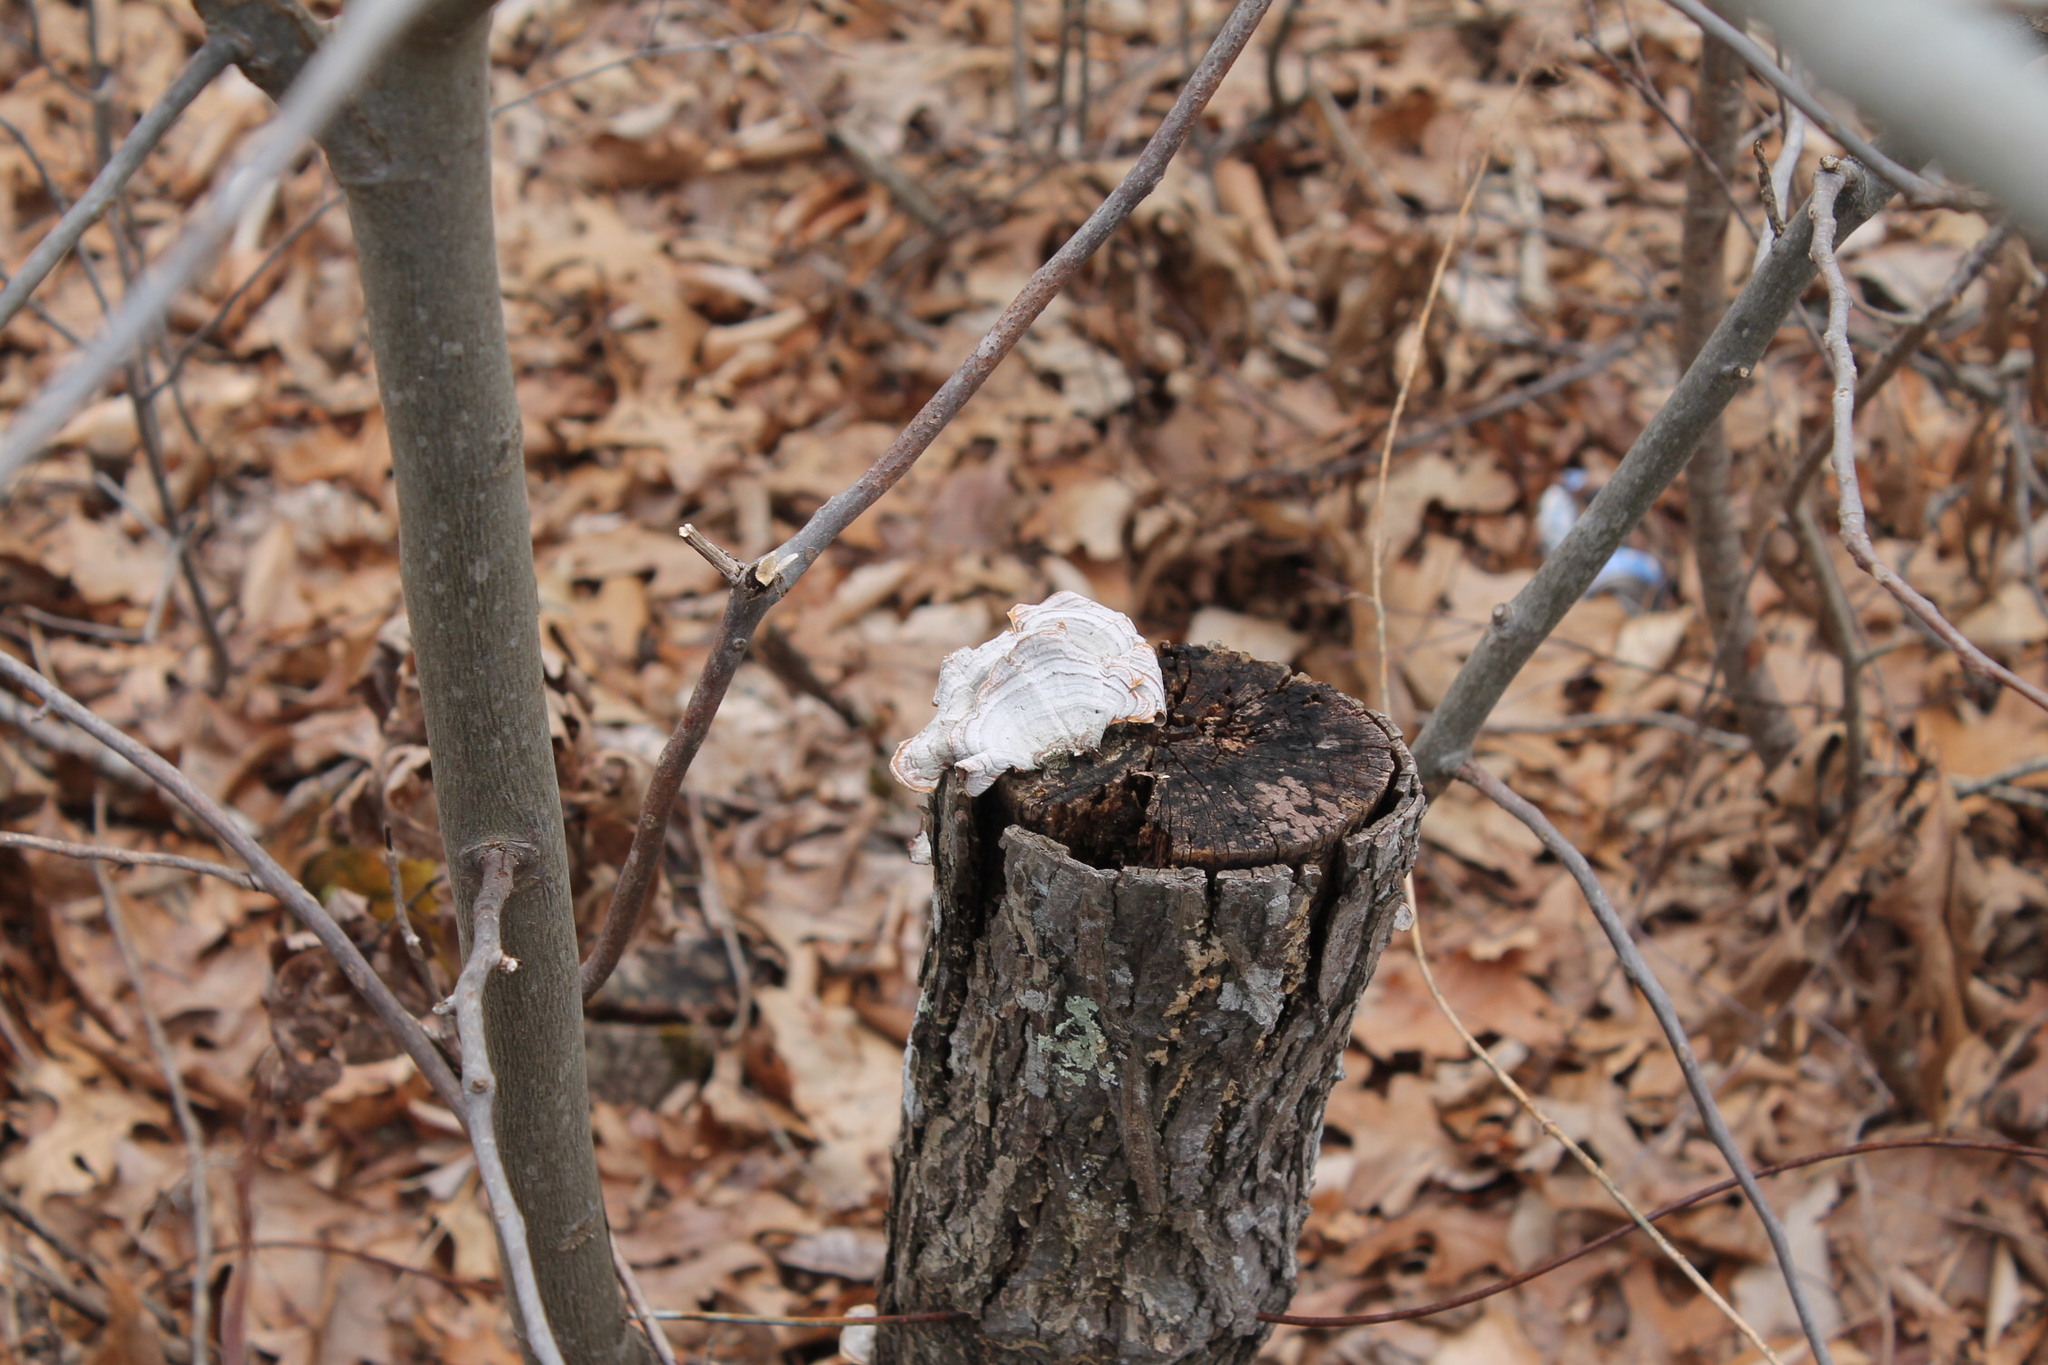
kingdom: Fungi
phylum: Basidiomycota
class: Agaricomycetes
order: Russulales
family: Stereaceae
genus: Stereum
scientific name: Stereum lobatum
